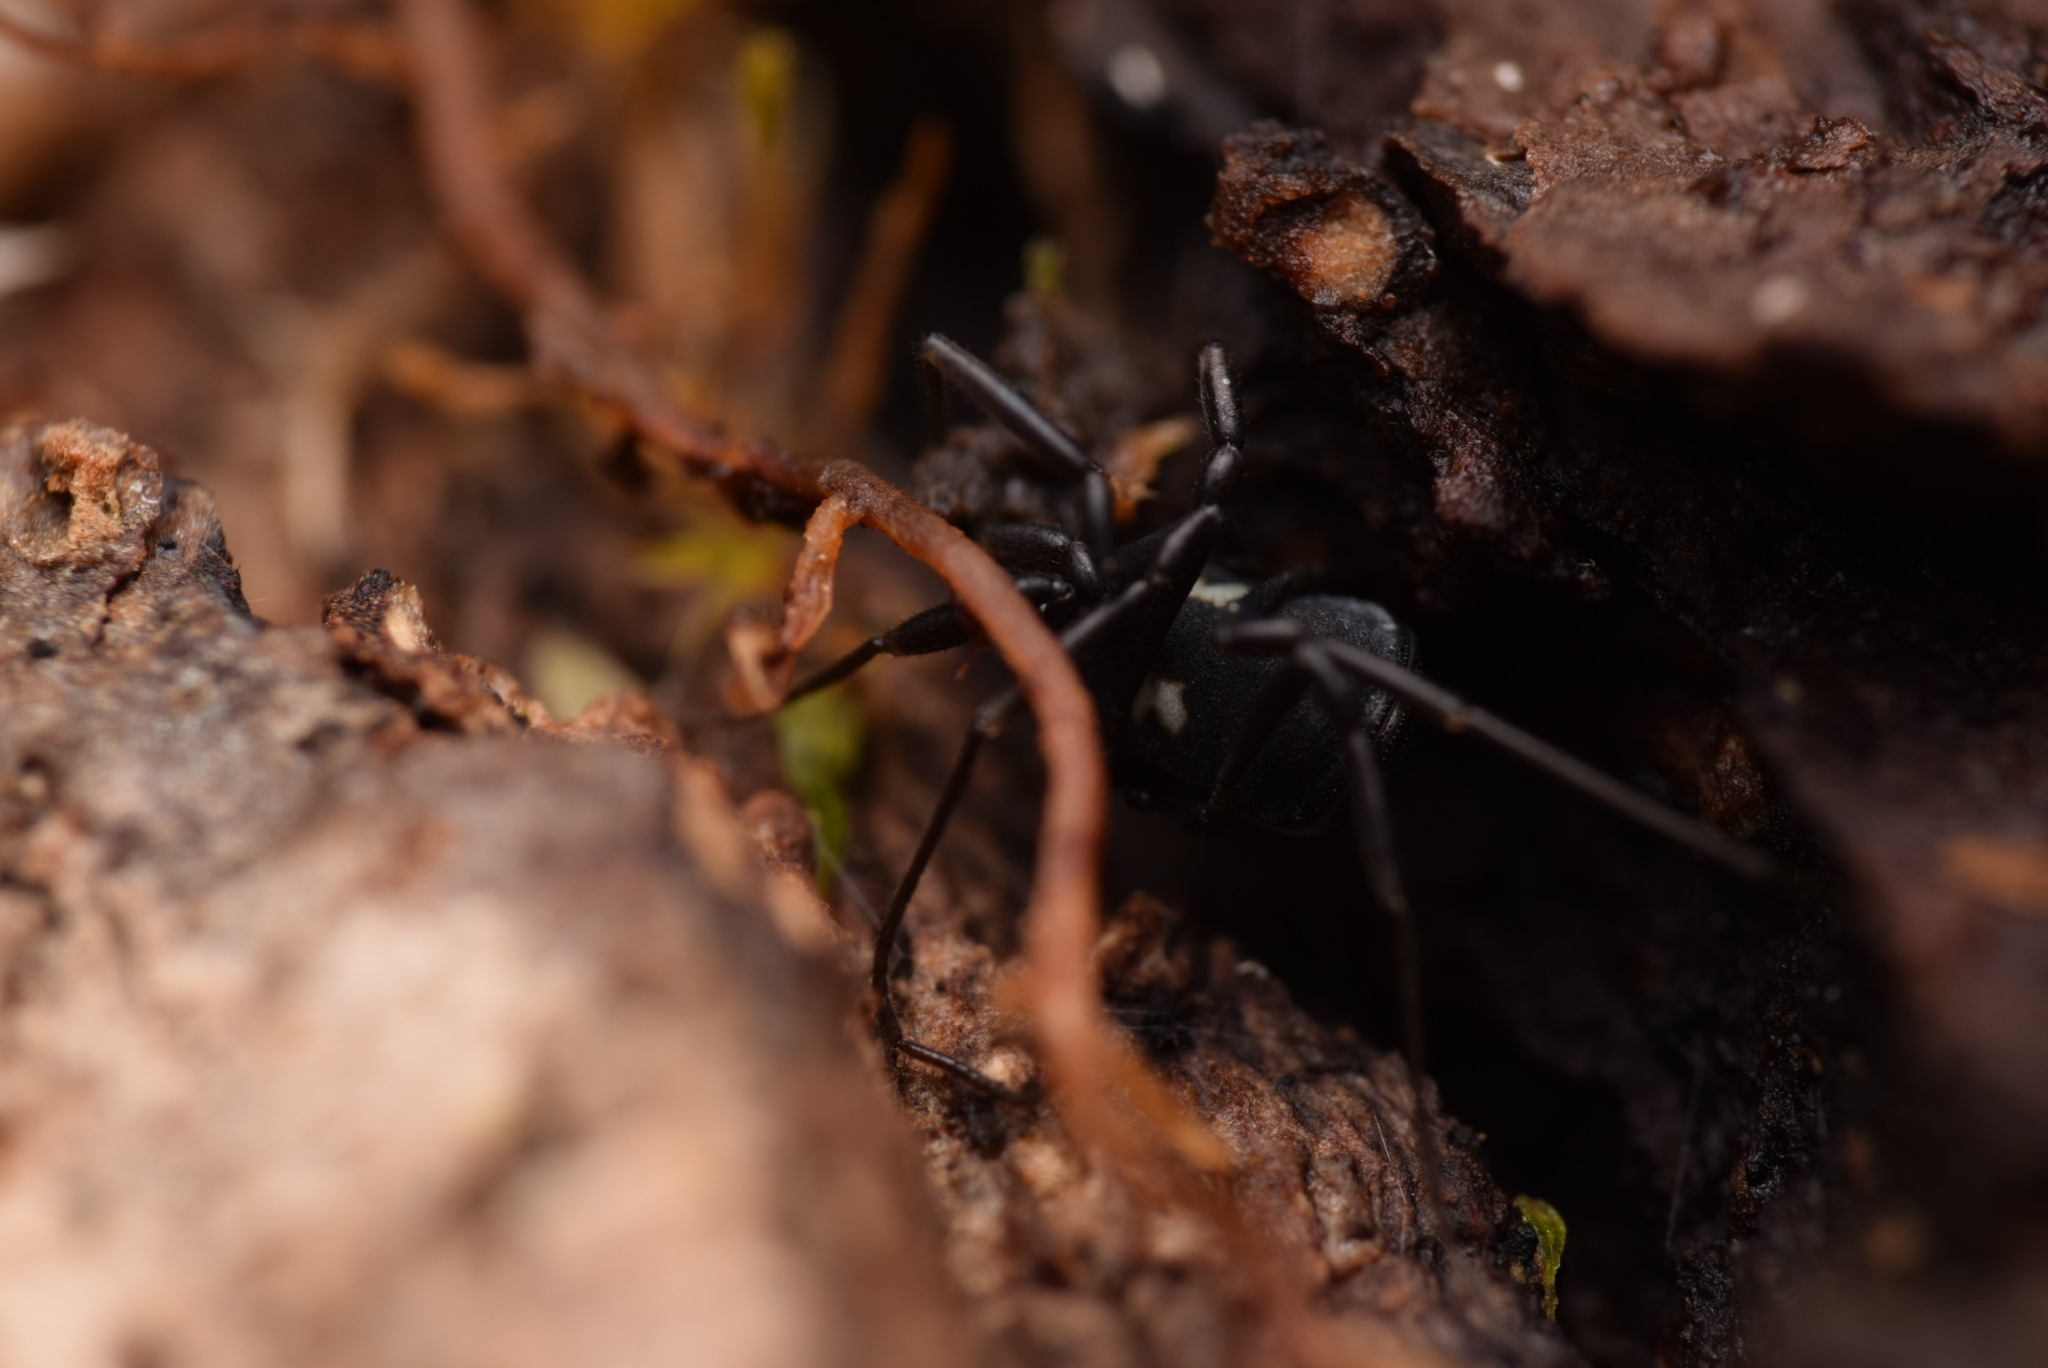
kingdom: Animalia
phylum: Arthropoda
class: Arachnida
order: Opiliones
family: Nemastomatidae
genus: Nemastoma
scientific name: Nemastoma bimaculatum
